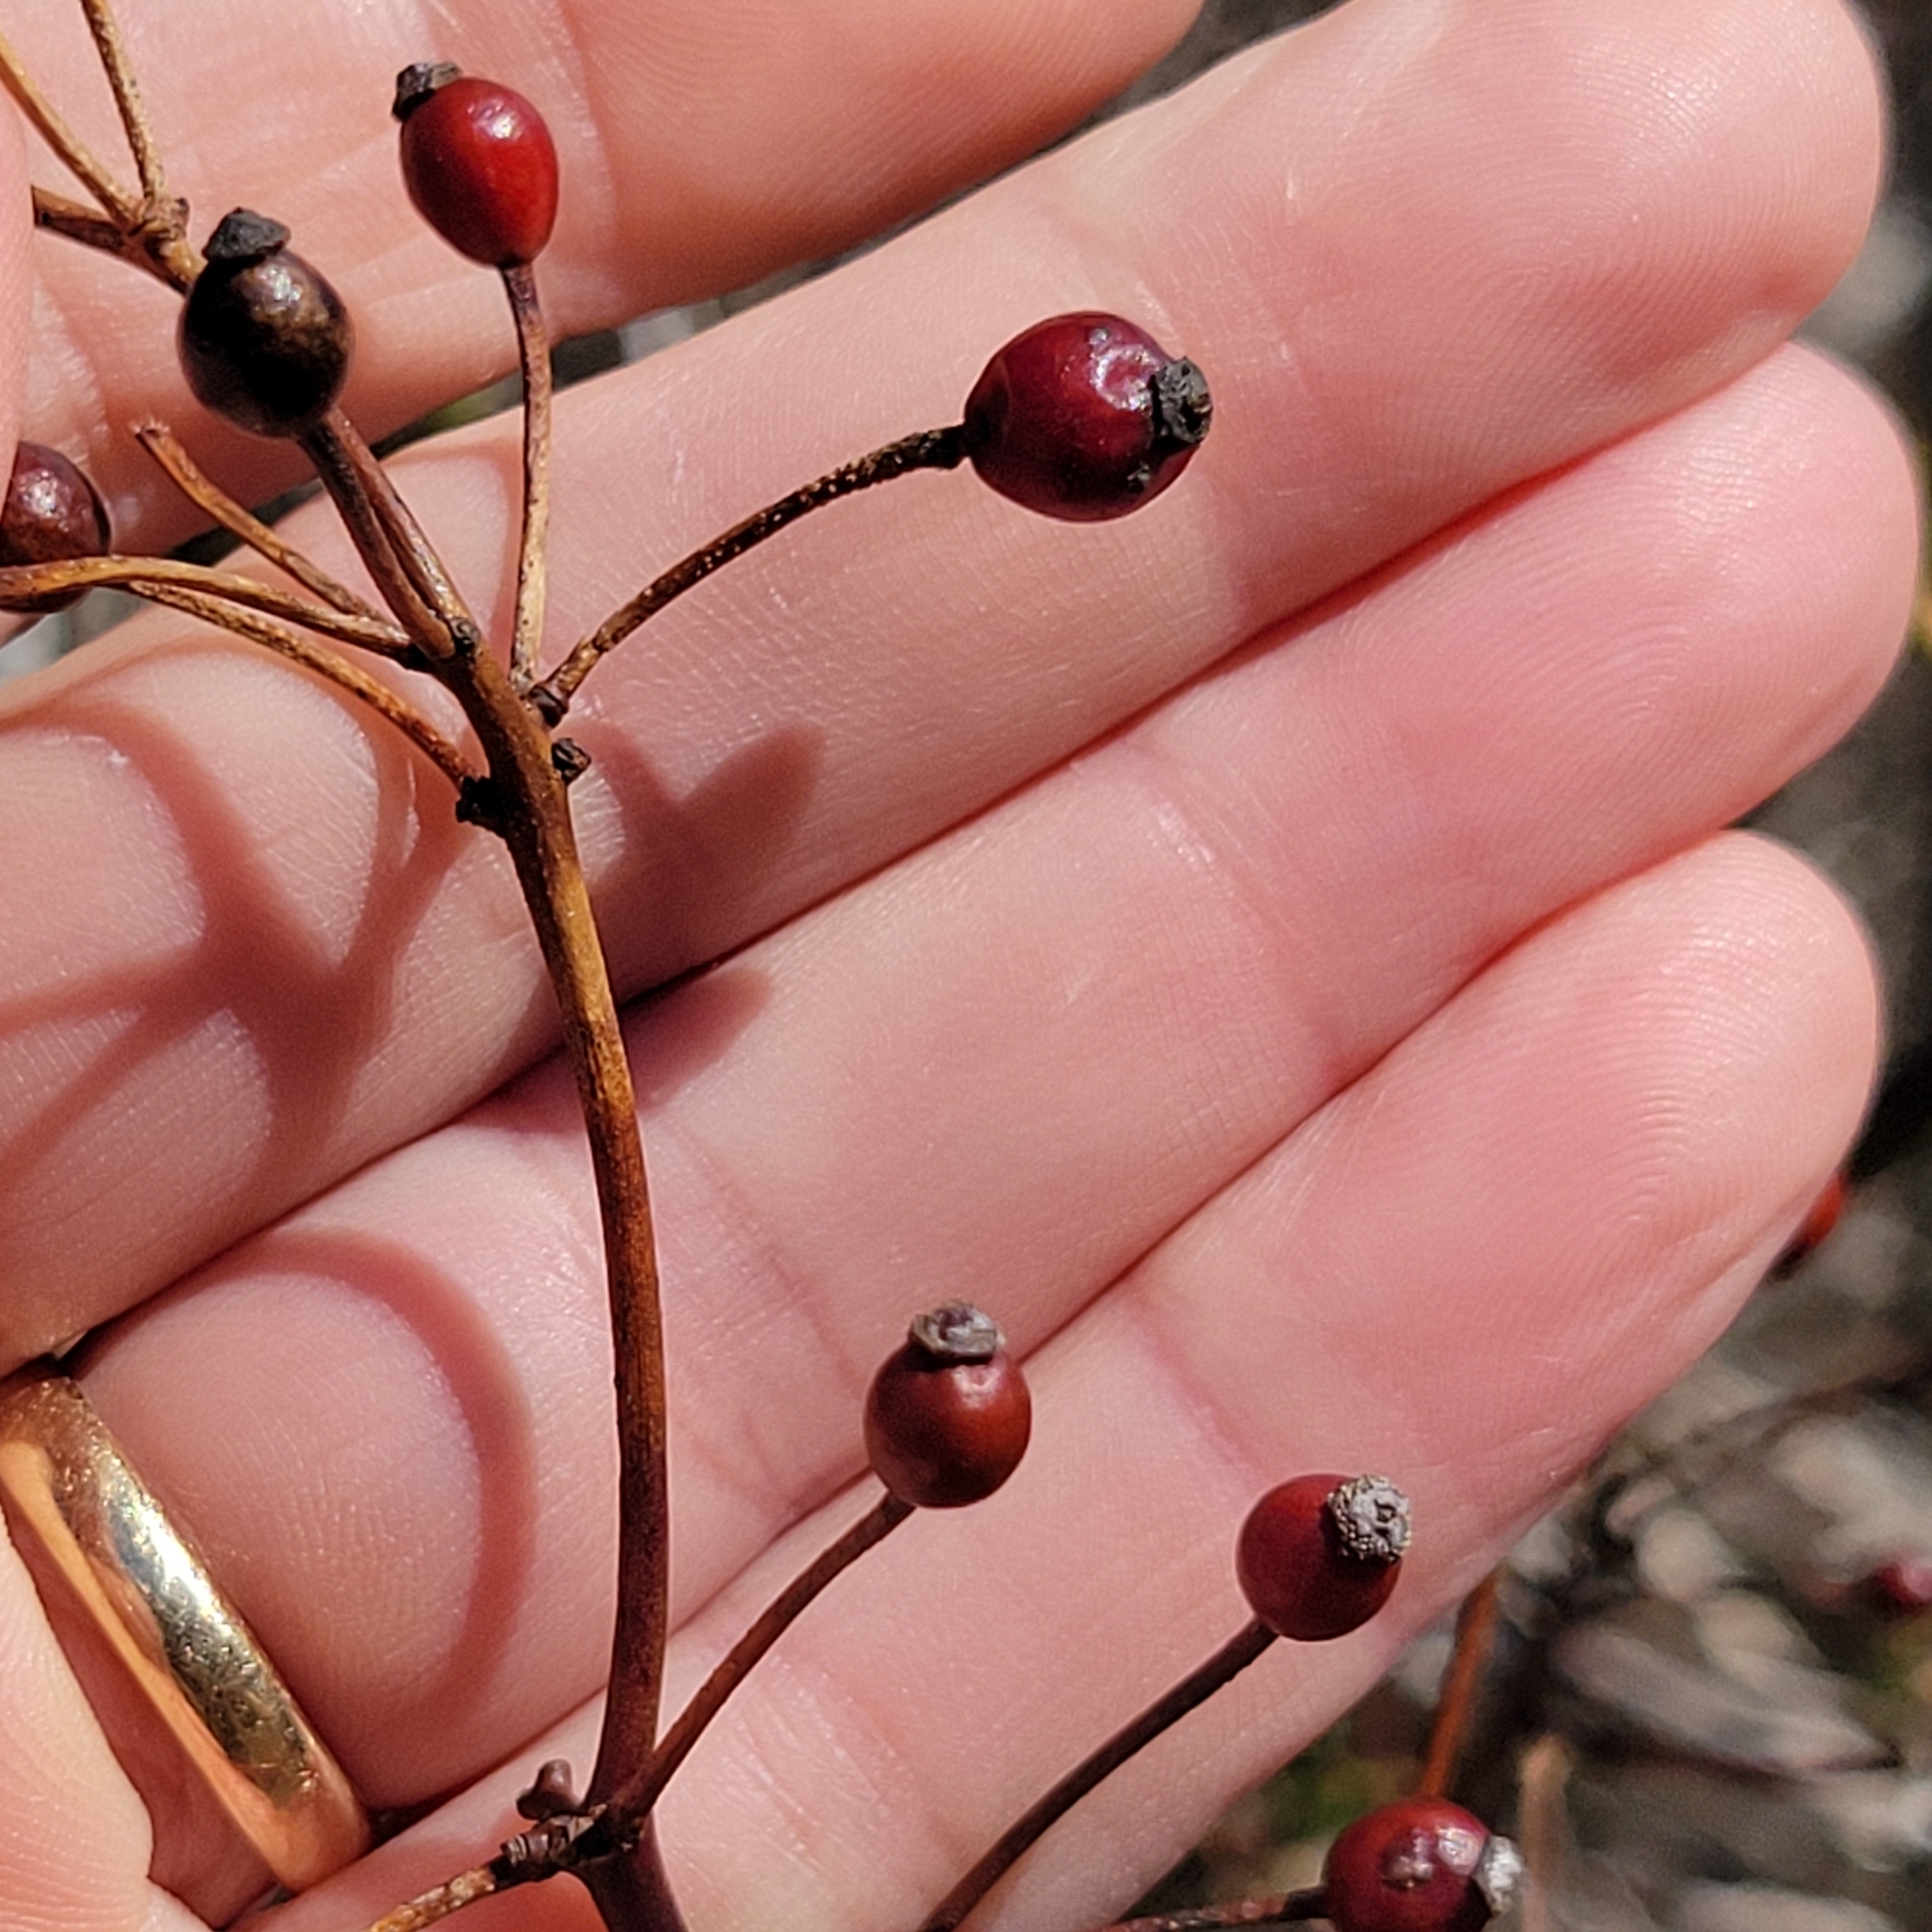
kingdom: Plantae
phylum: Tracheophyta
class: Magnoliopsida
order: Rosales
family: Rosaceae
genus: Rosa
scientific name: Rosa multiflora
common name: Multiflora rose
